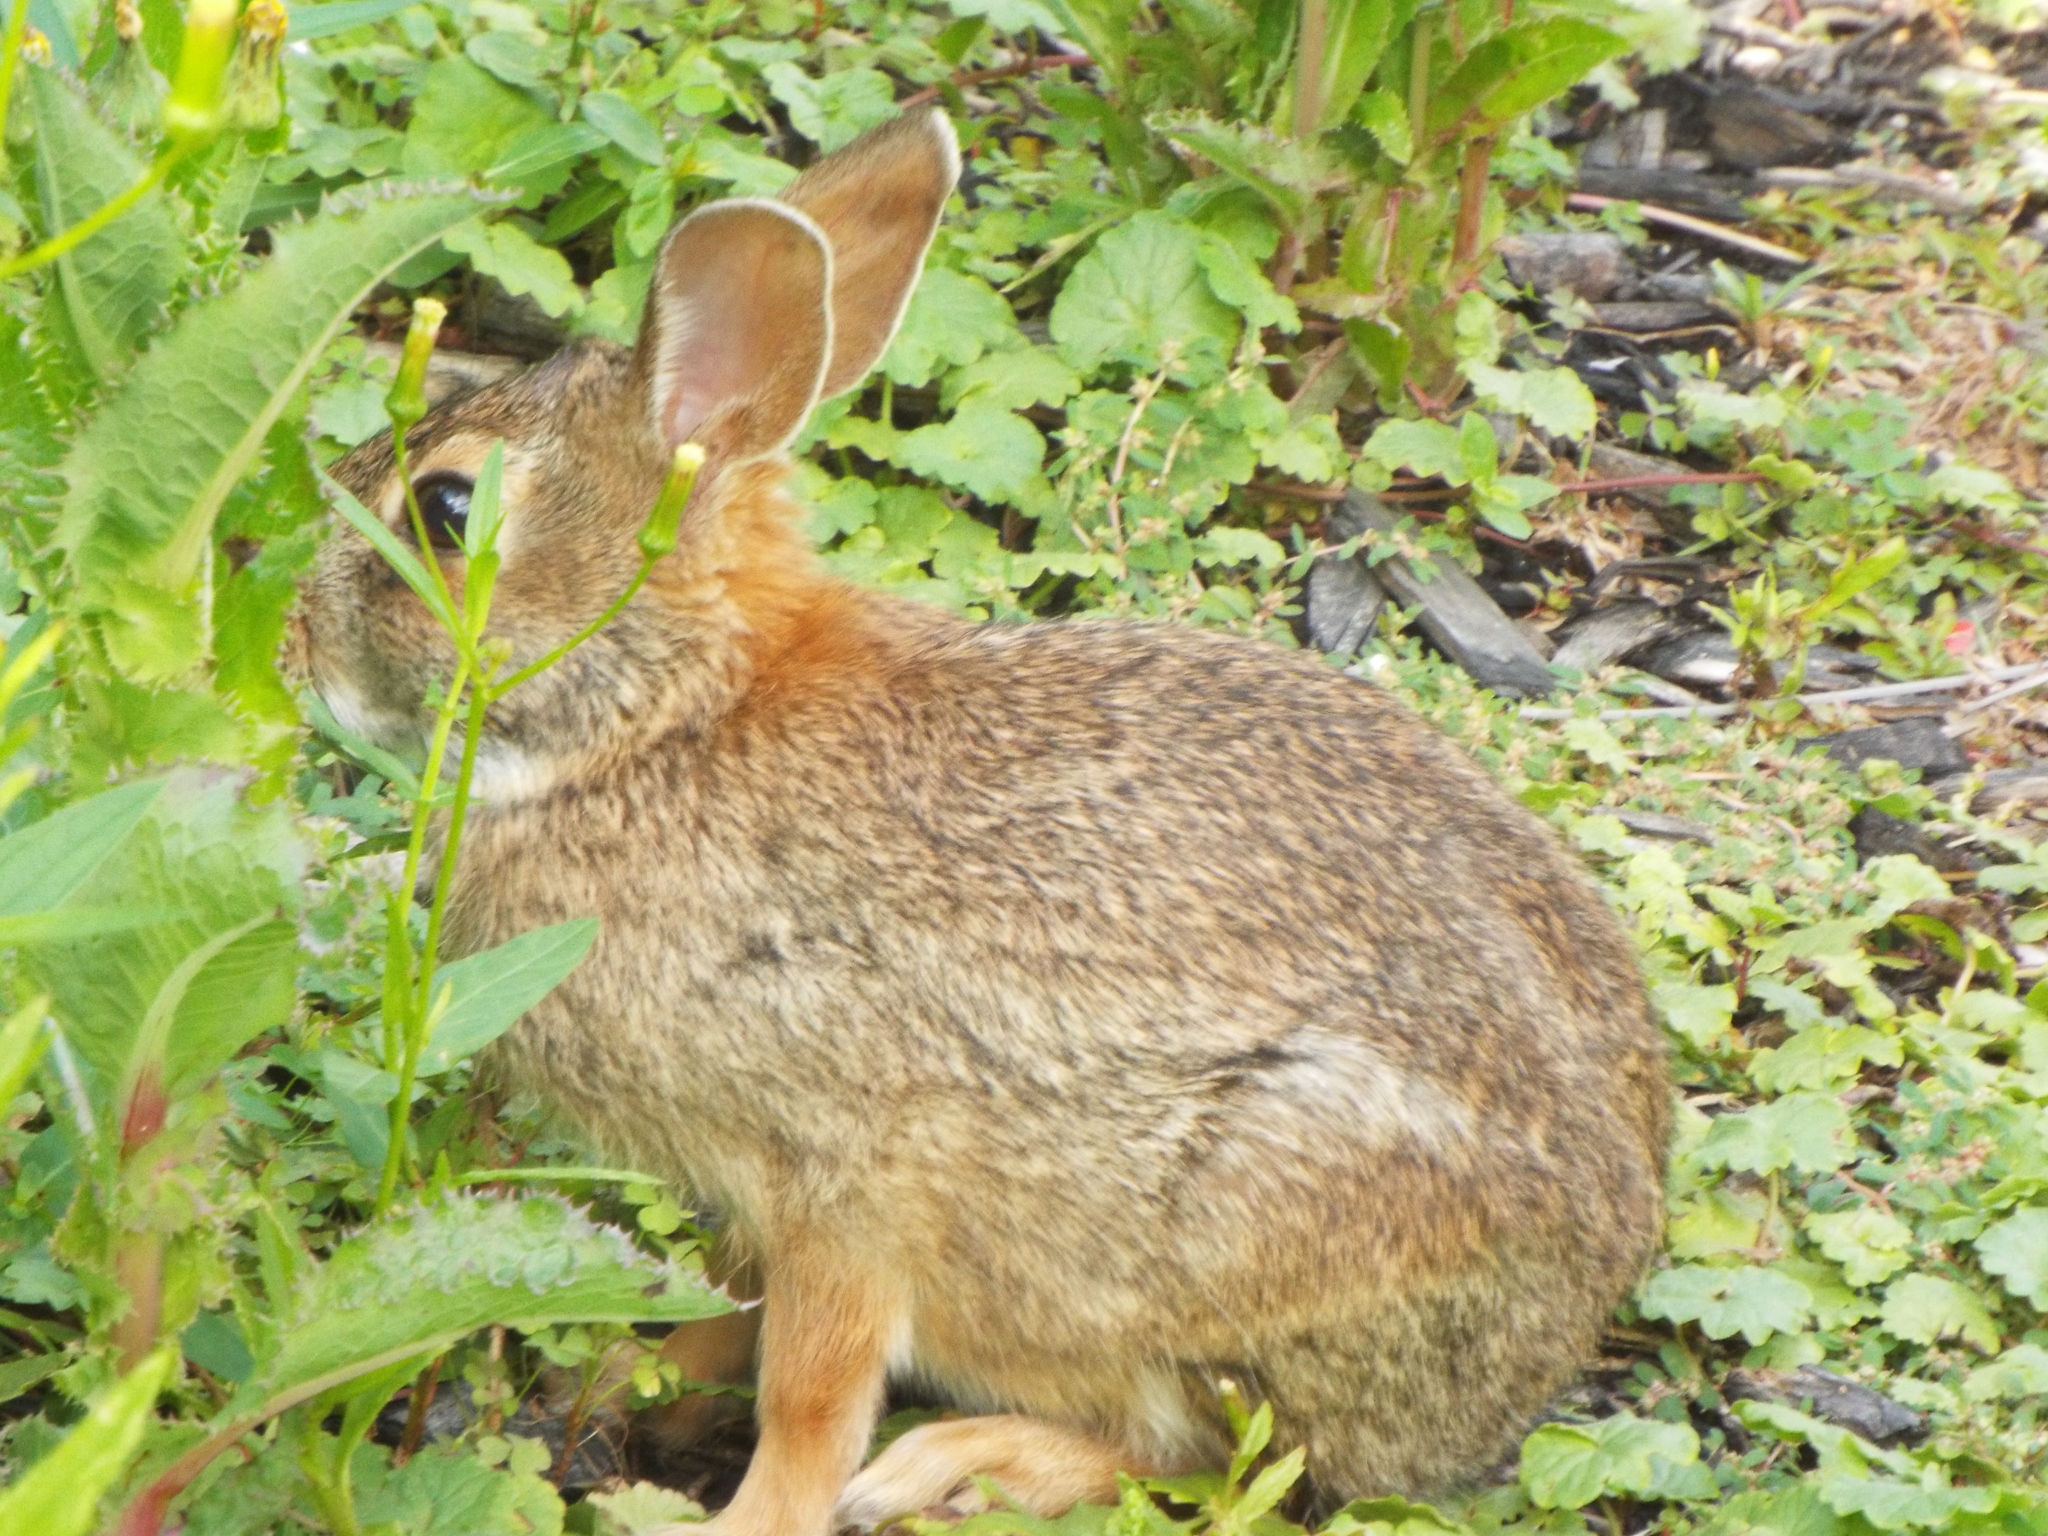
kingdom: Animalia
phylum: Chordata
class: Mammalia
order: Lagomorpha
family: Leporidae
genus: Sylvilagus
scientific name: Sylvilagus floridanus
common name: Eastern cottontail
